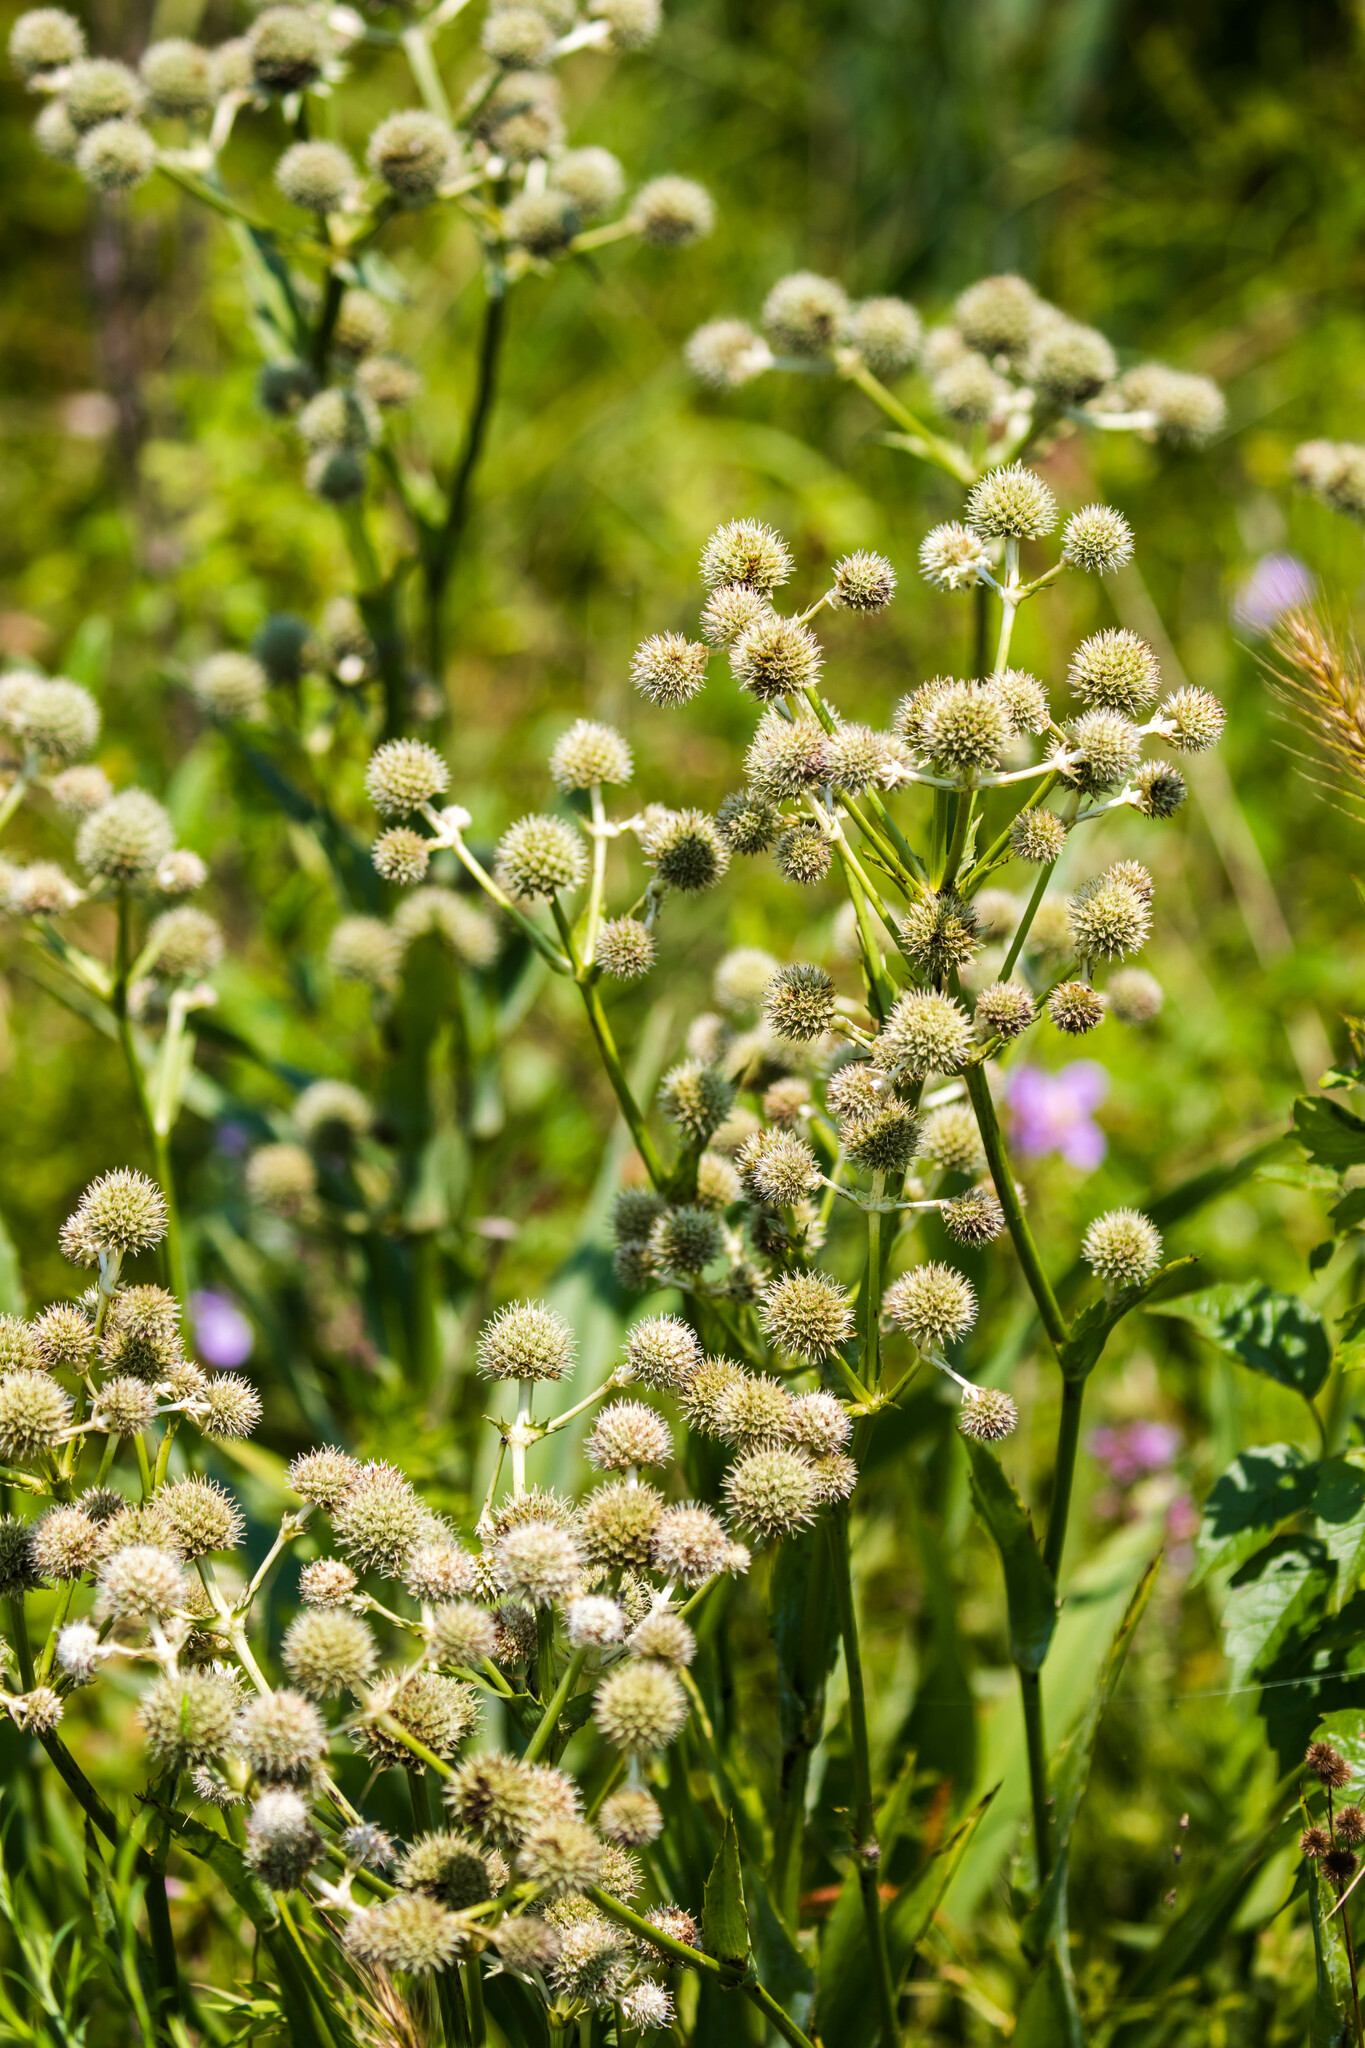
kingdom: Plantae
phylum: Tracheophyta
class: Magnoliopsida
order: Apiales
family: Apiaceae
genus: Eryngium
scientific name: Eryngium yuccifolium
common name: Button eryngo
